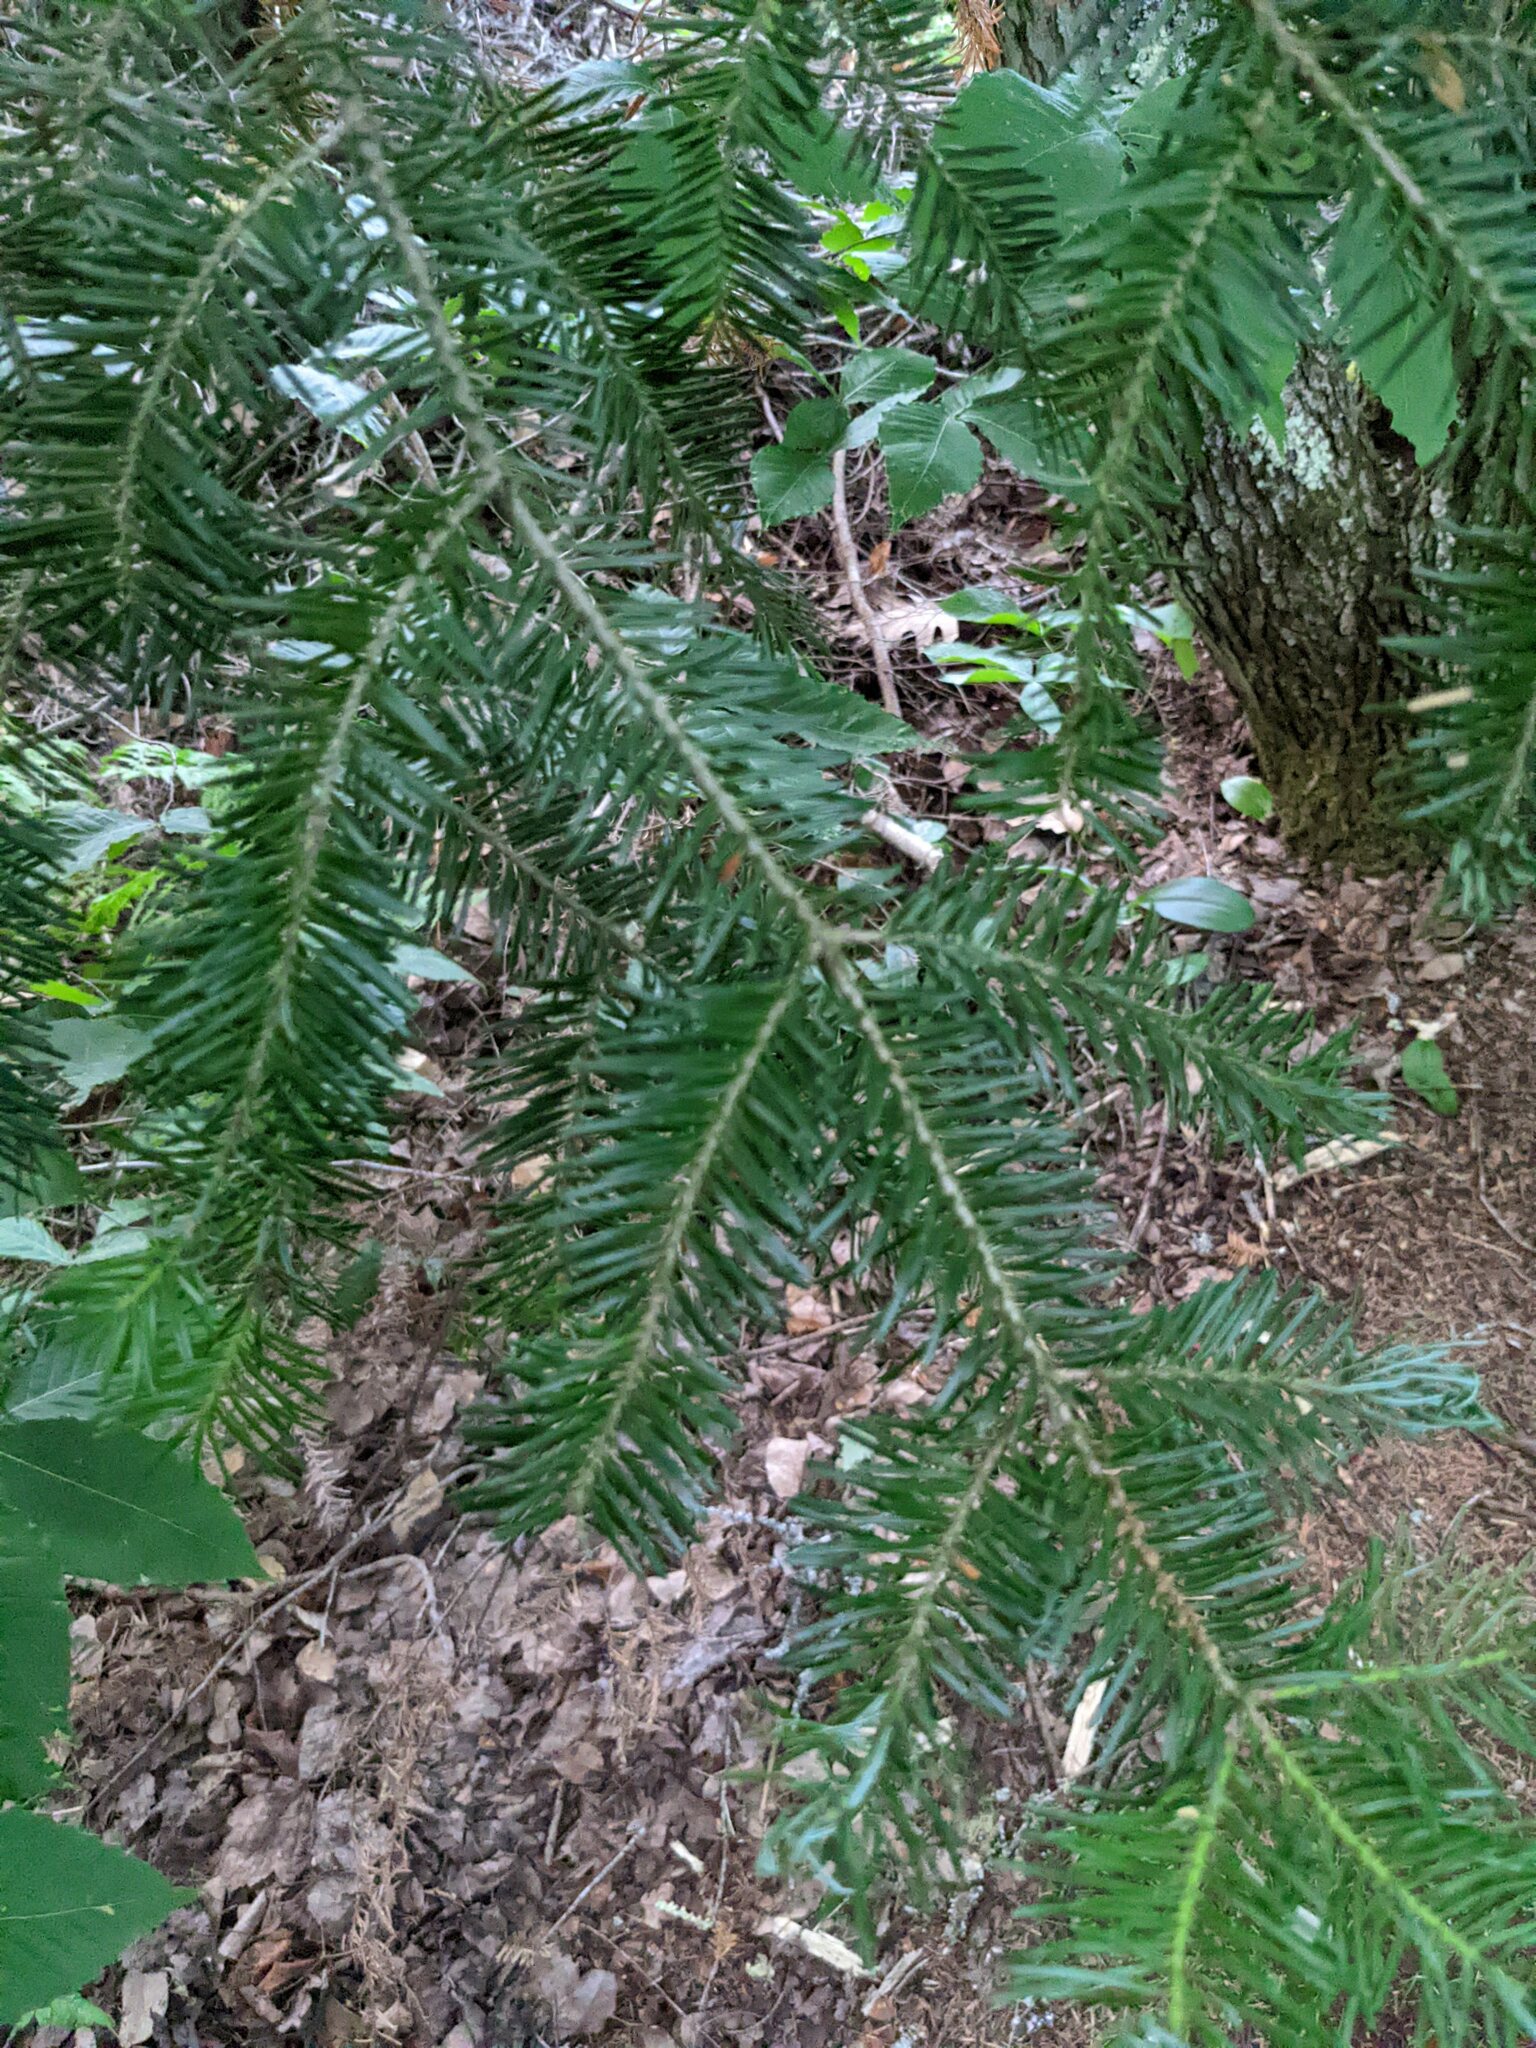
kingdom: Plantae
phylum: Tracheophyta
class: Pinopsida
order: Pinales
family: Pinaceae
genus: Abies
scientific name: Abies balsamea
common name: Balsam fir
